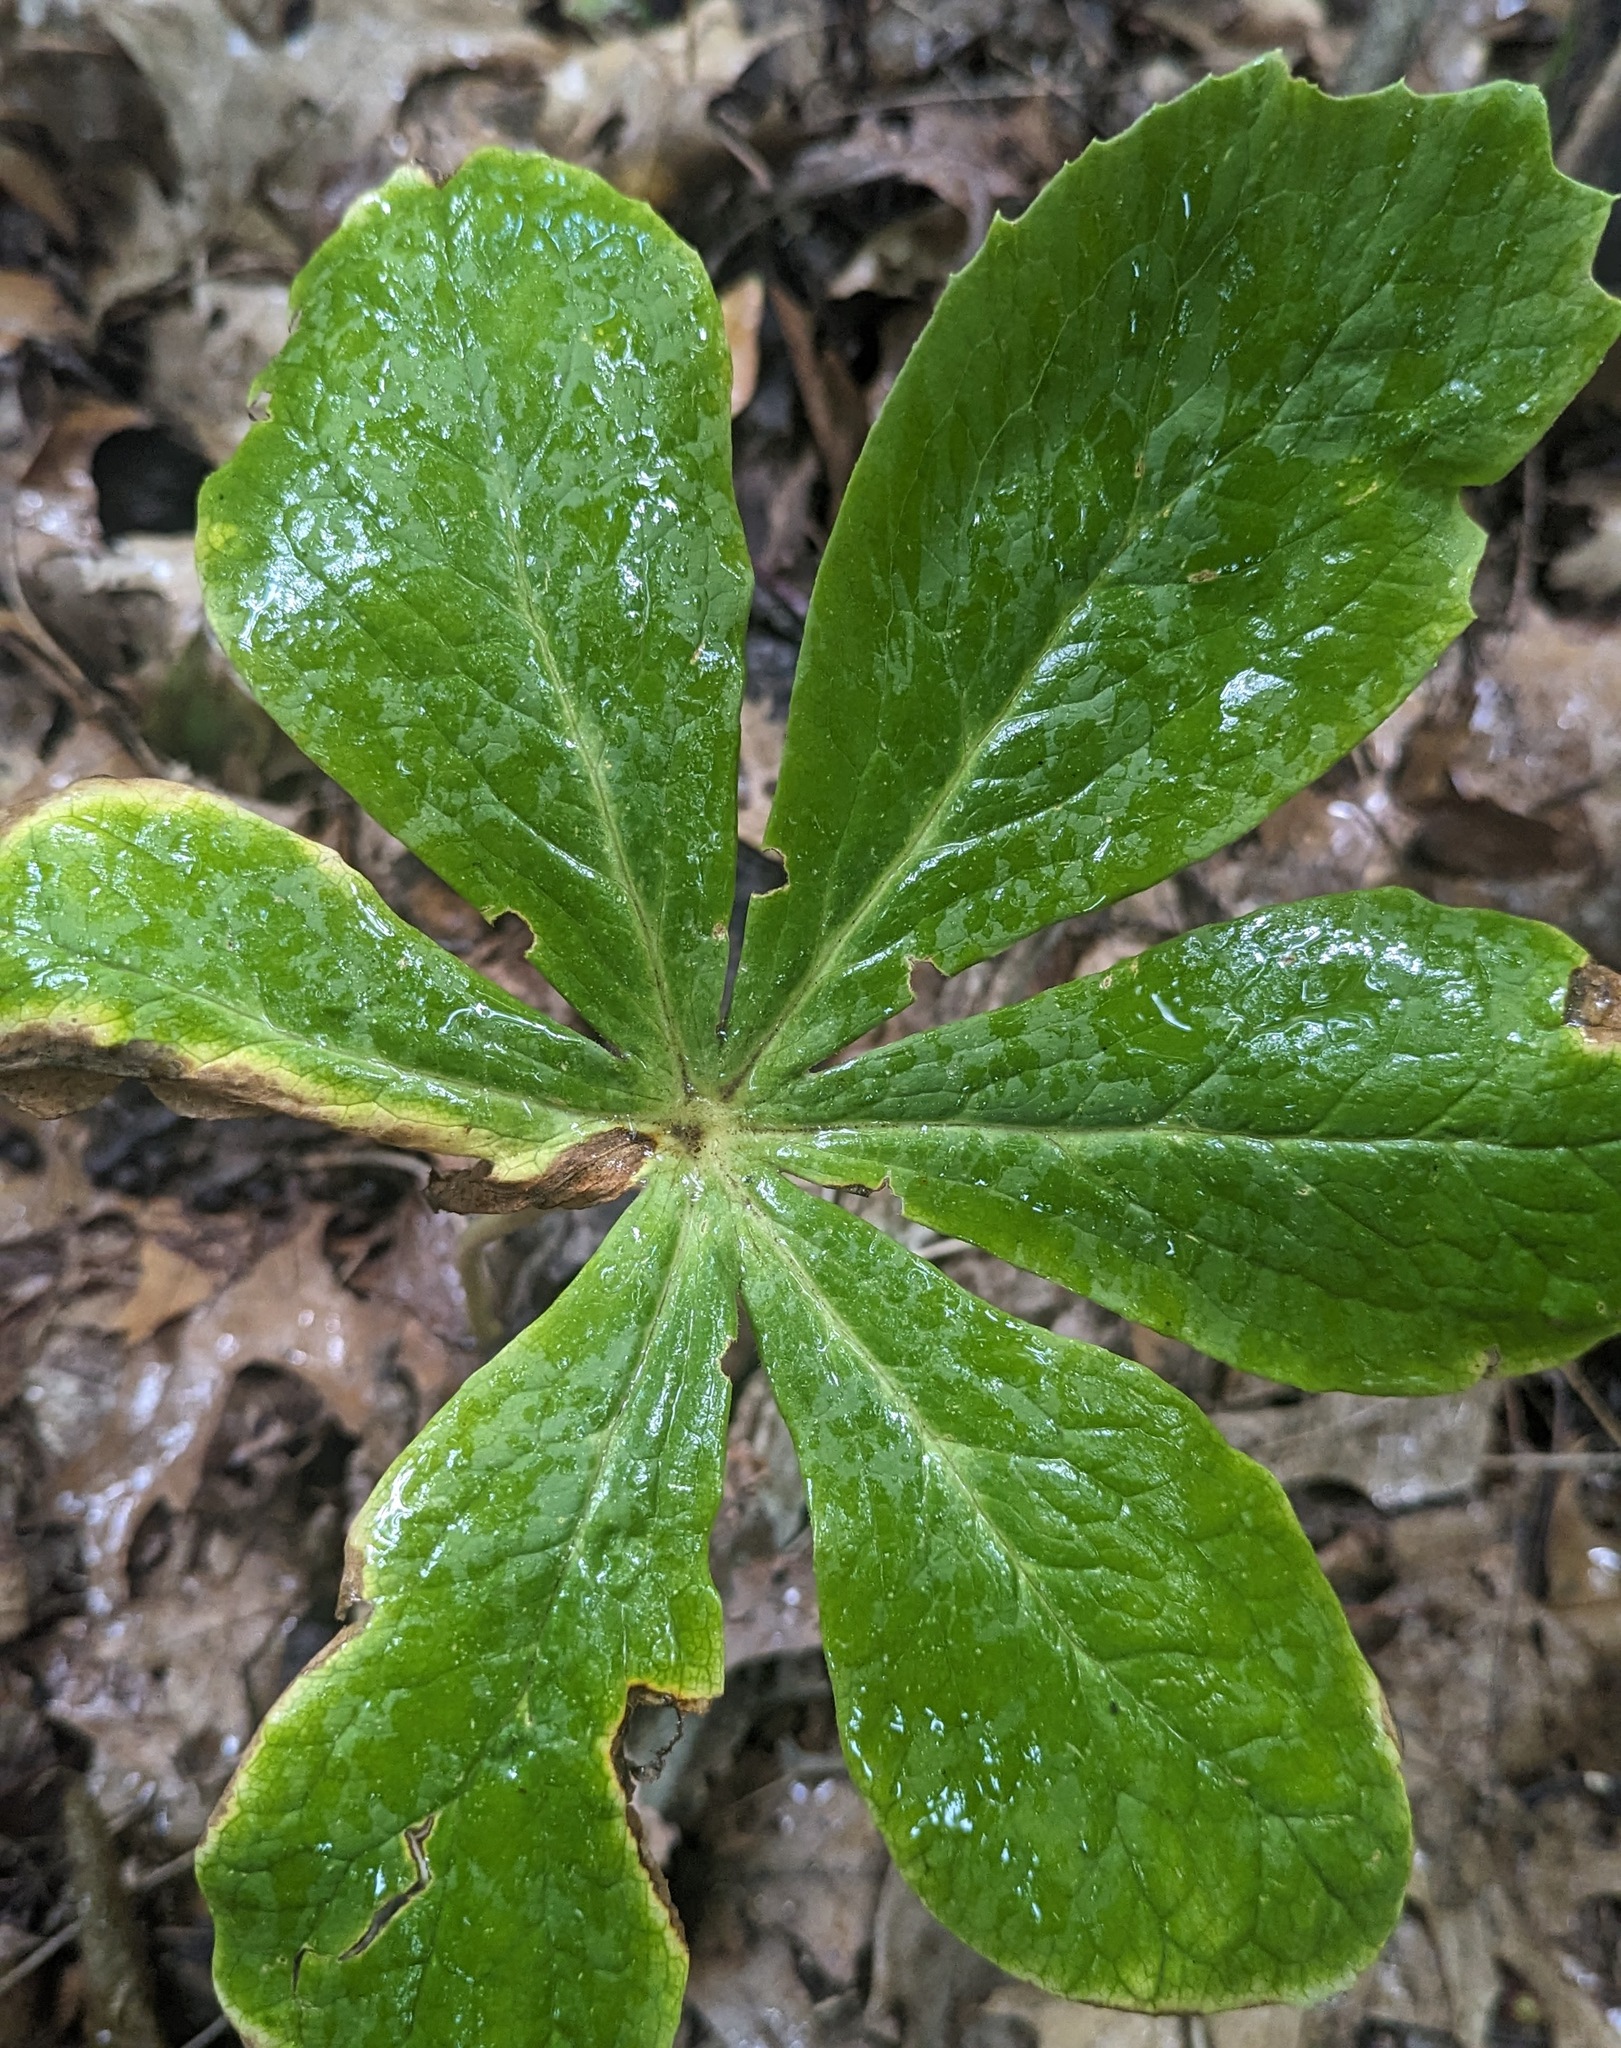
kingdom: Plantae
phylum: Tracheophyta
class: Magnoliopsida
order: Ranunculales
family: Berberidaceae
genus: Podophyllum
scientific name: Podophyllum peltatum
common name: Wild mandrake
